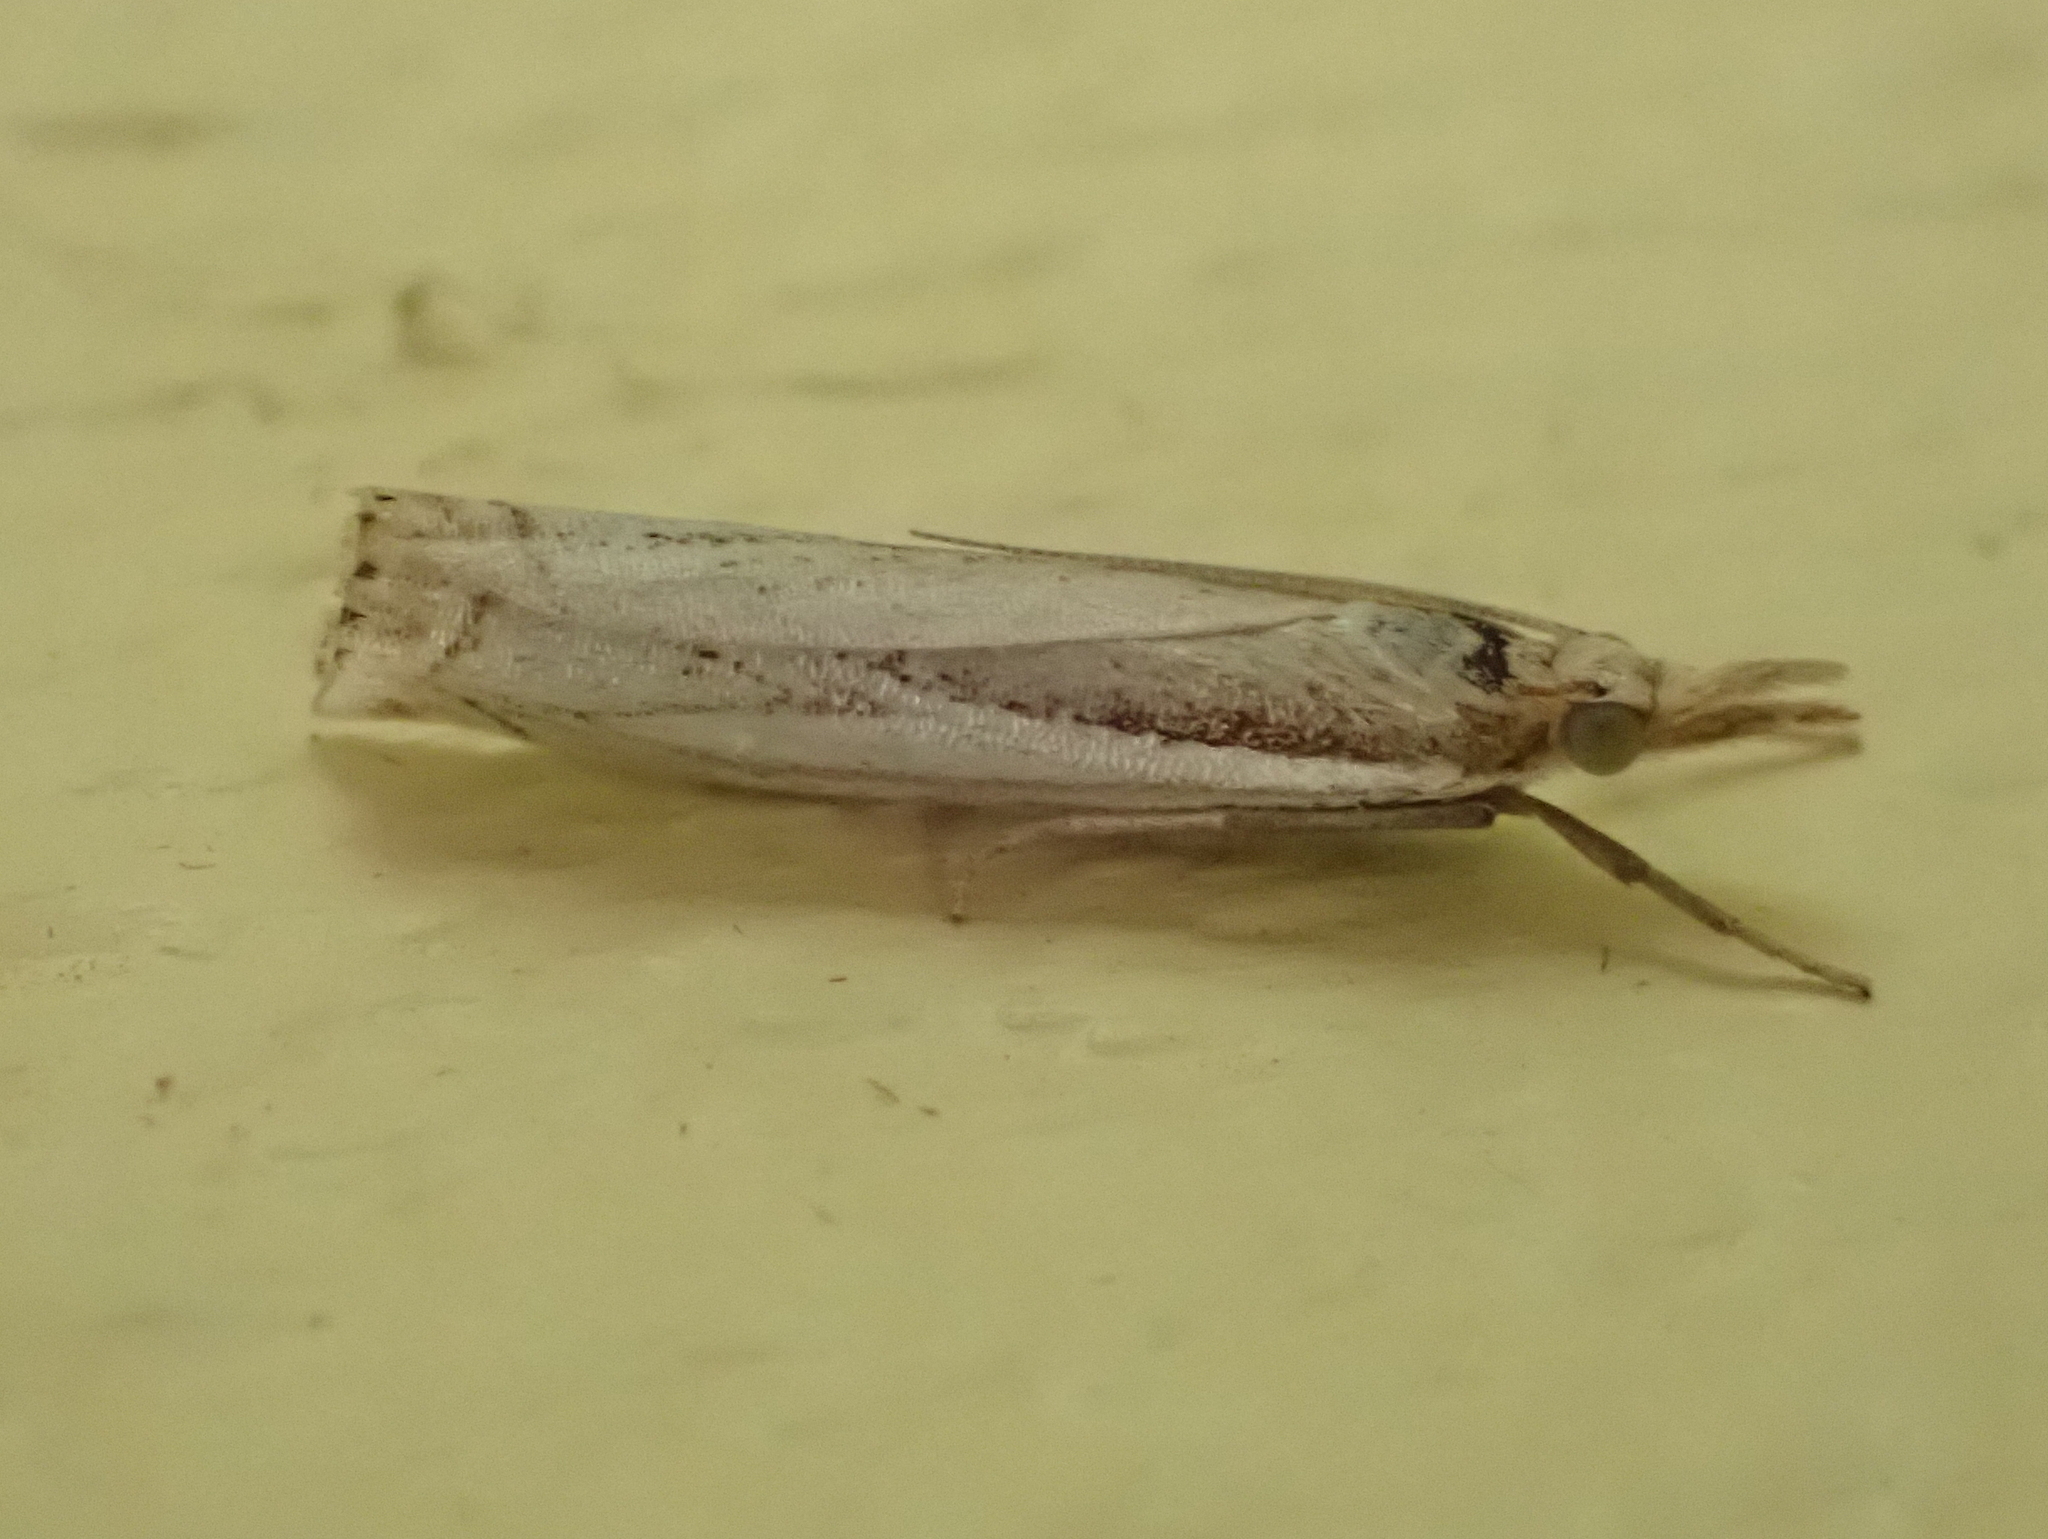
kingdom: Animalia
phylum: Arthropoda
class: Insecta
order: Lepidoptera
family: Crambidae
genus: Crambus
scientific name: Crambus saltuellus
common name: Pasture grass-veneer
